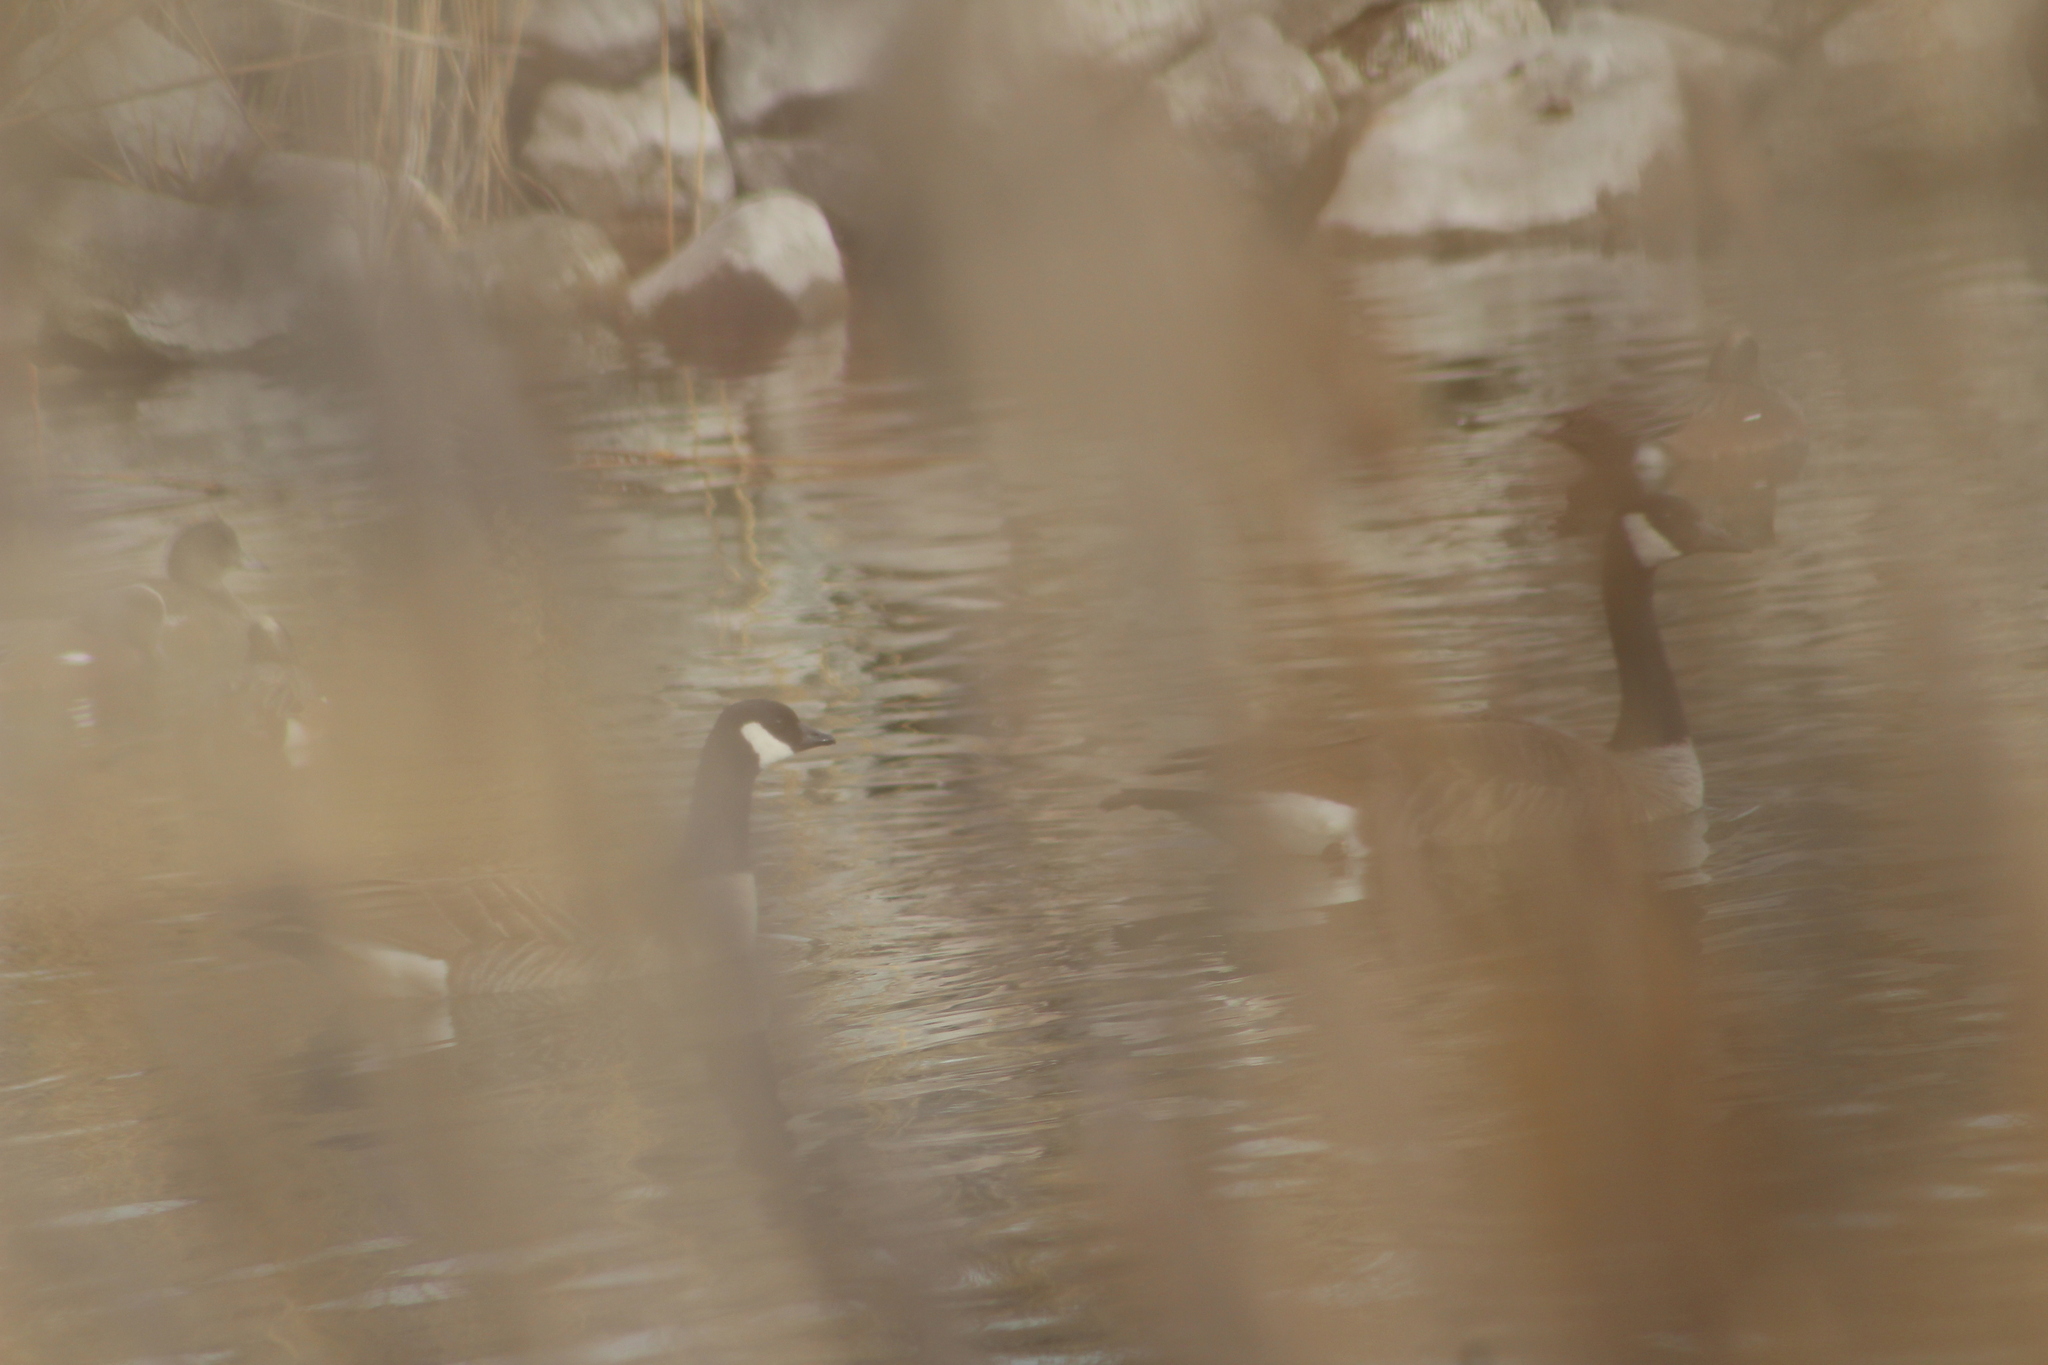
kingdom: Animalia
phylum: Chordata
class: Aves
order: Anseriformes
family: Anatidae
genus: Branta
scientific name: Branta hutchinsii
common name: Cackling goose
